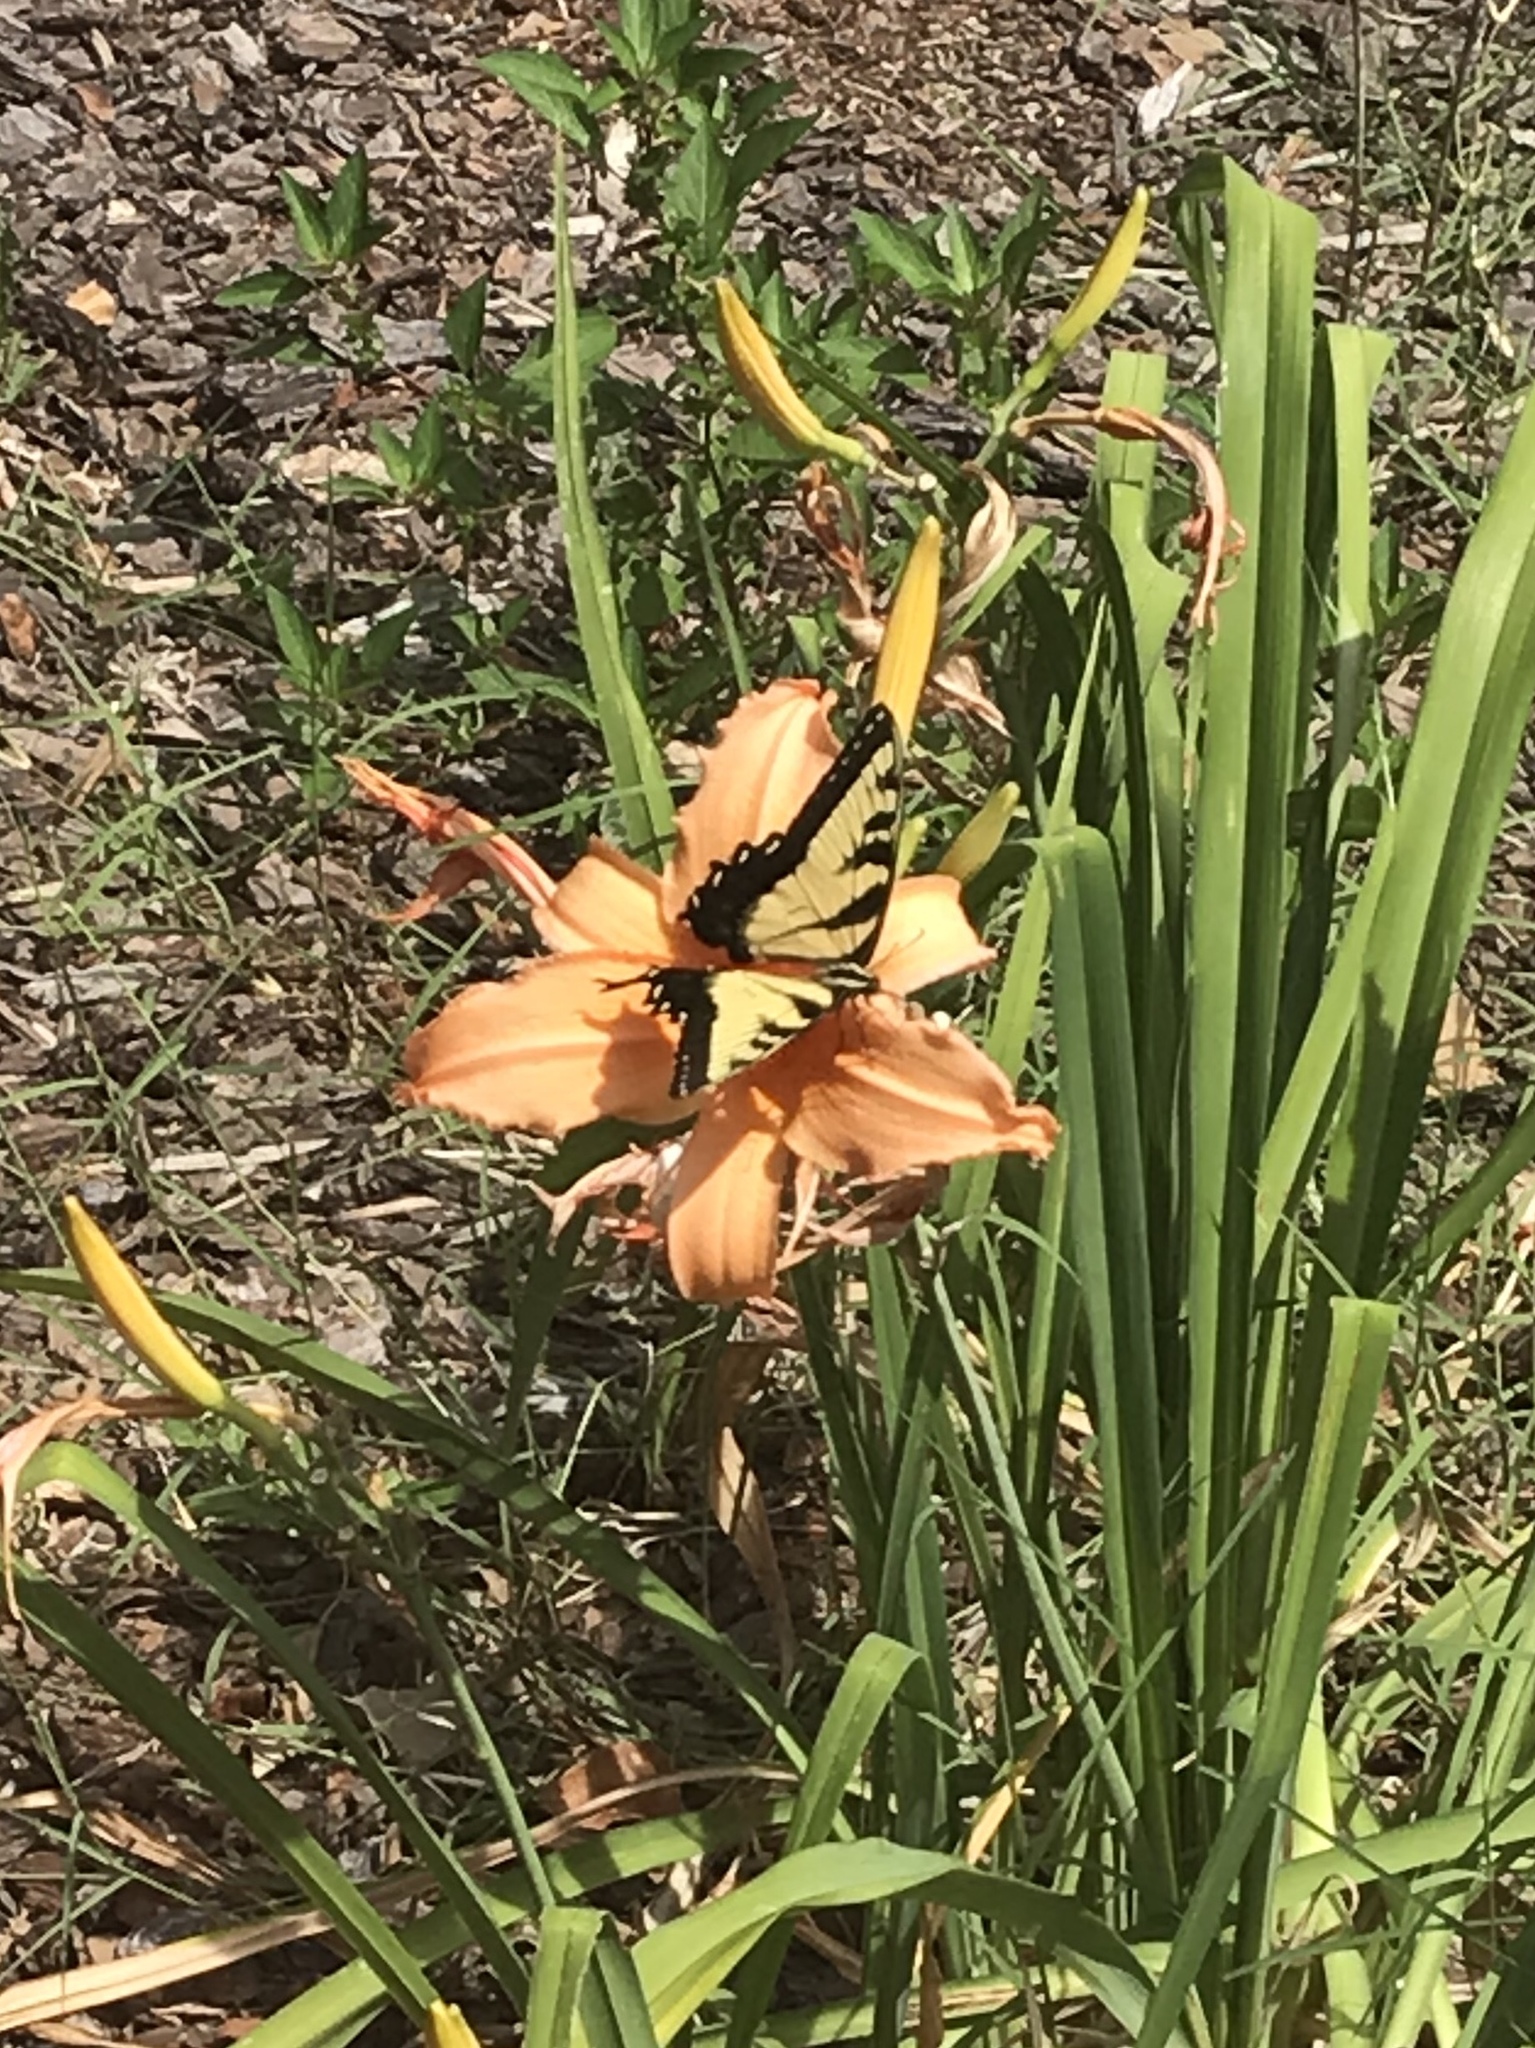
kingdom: Animalia
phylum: Arthropoda
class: Insecta
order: Lepidoptera
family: Papilionidae
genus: Papilio
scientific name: Papilio glaucus
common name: Tiger swallowtail
